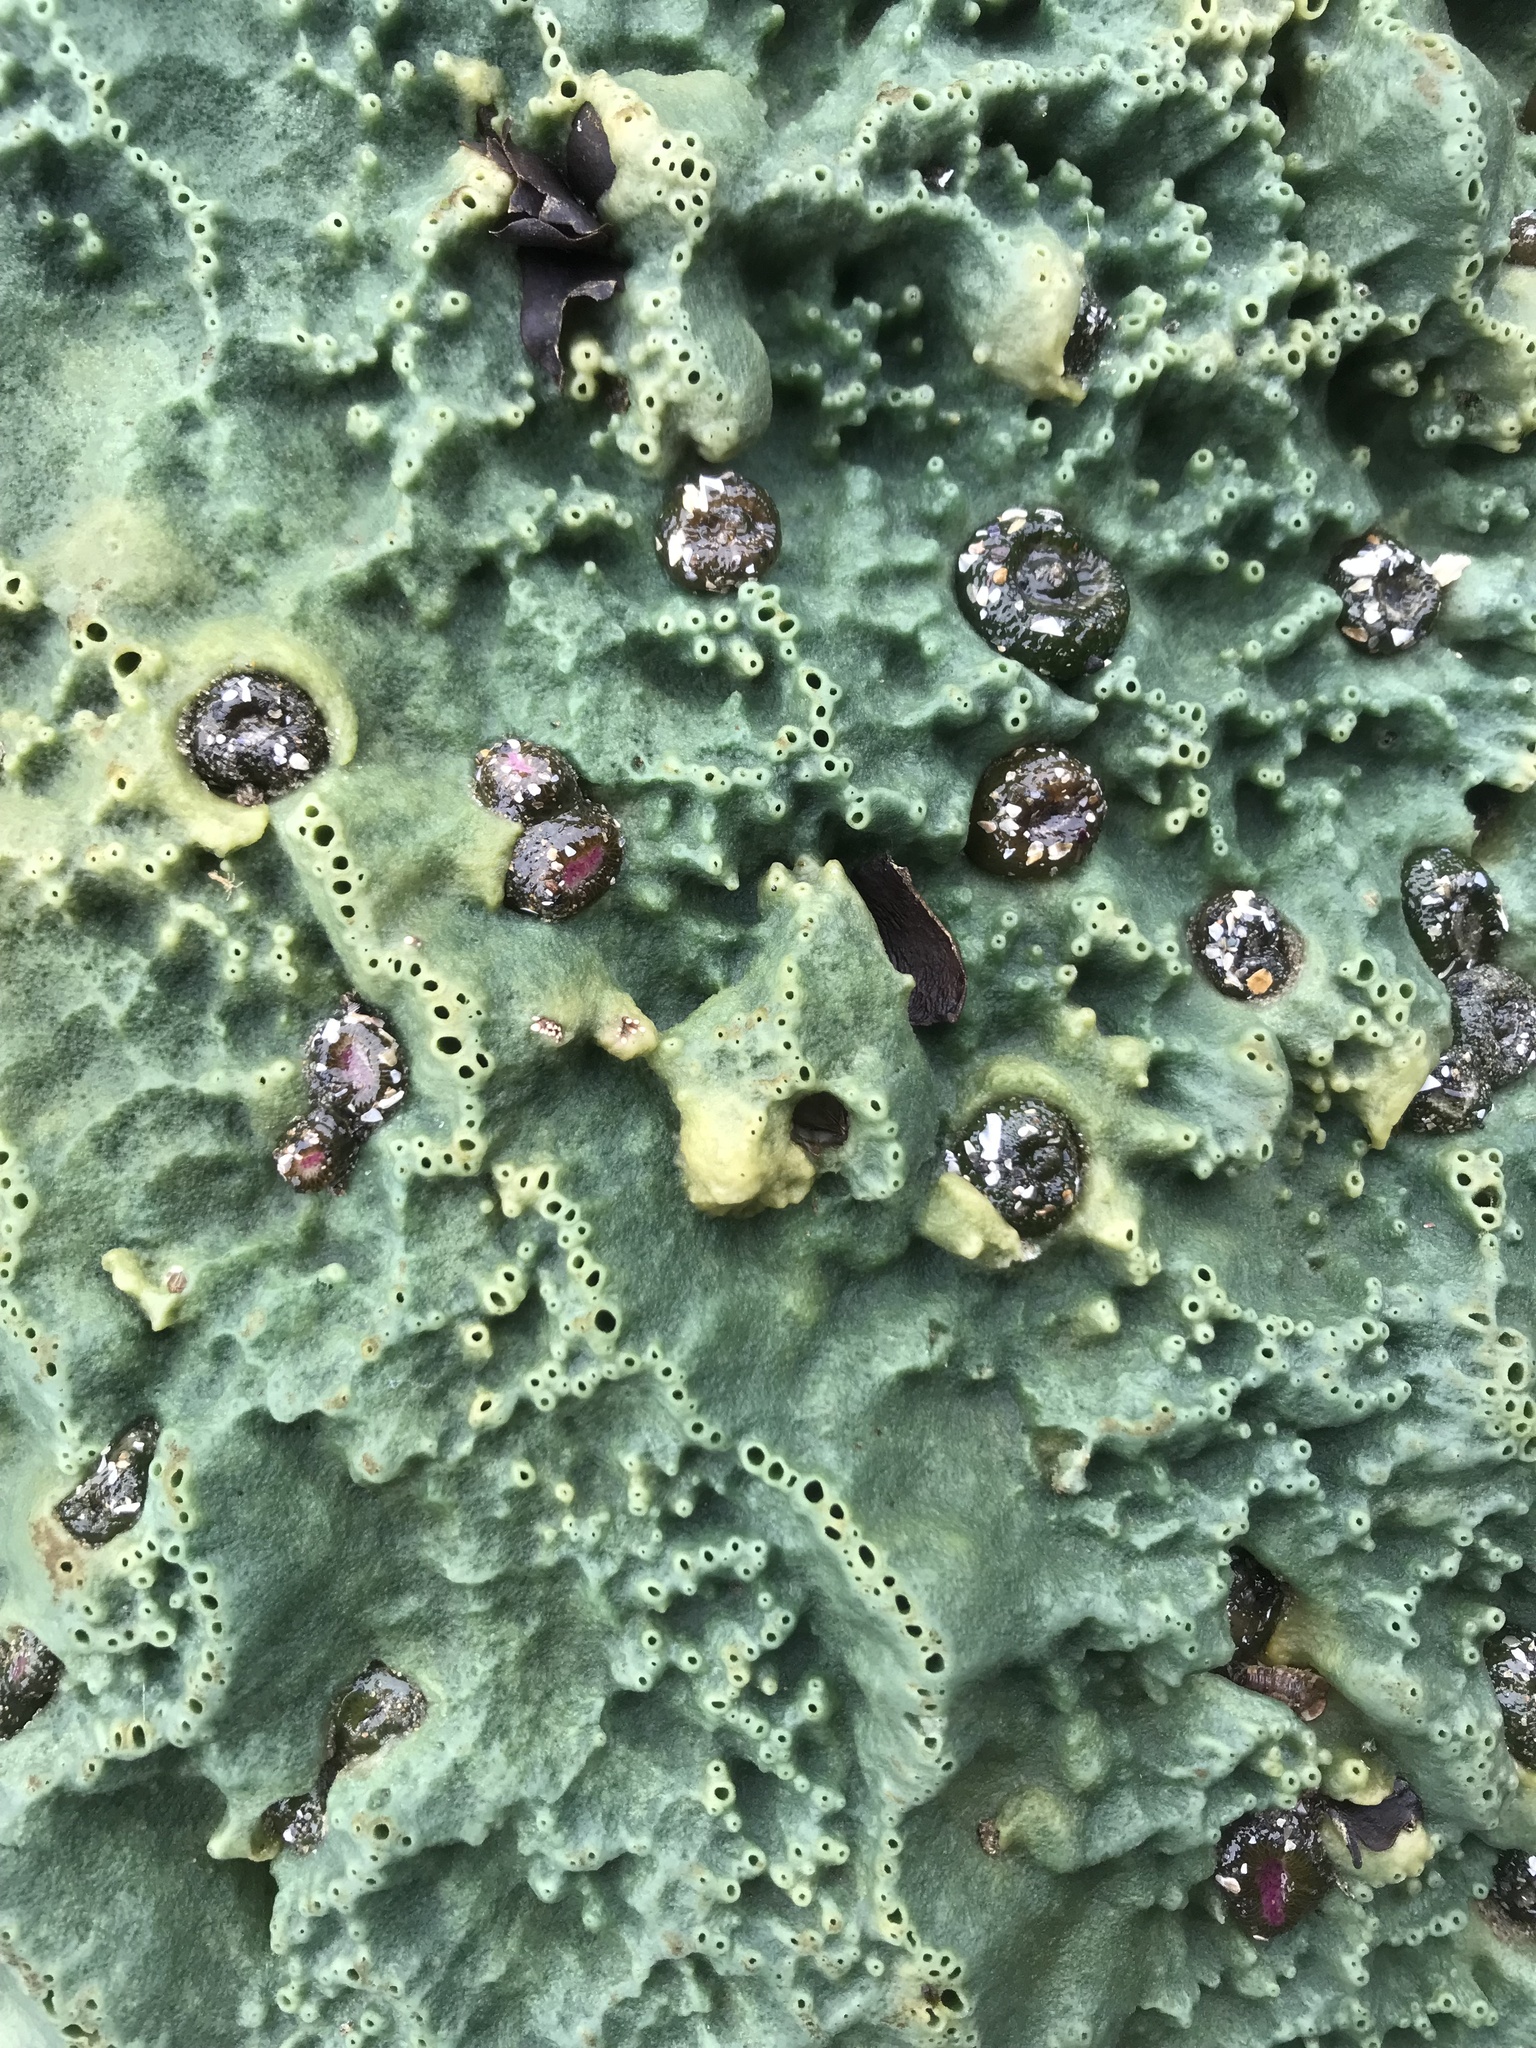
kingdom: Animalia
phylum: Porifera
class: Demospongiae
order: Suberitida
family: Halichondriidae
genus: Halichondria
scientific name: Halichondria panicea
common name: Breadcrumb sponge
